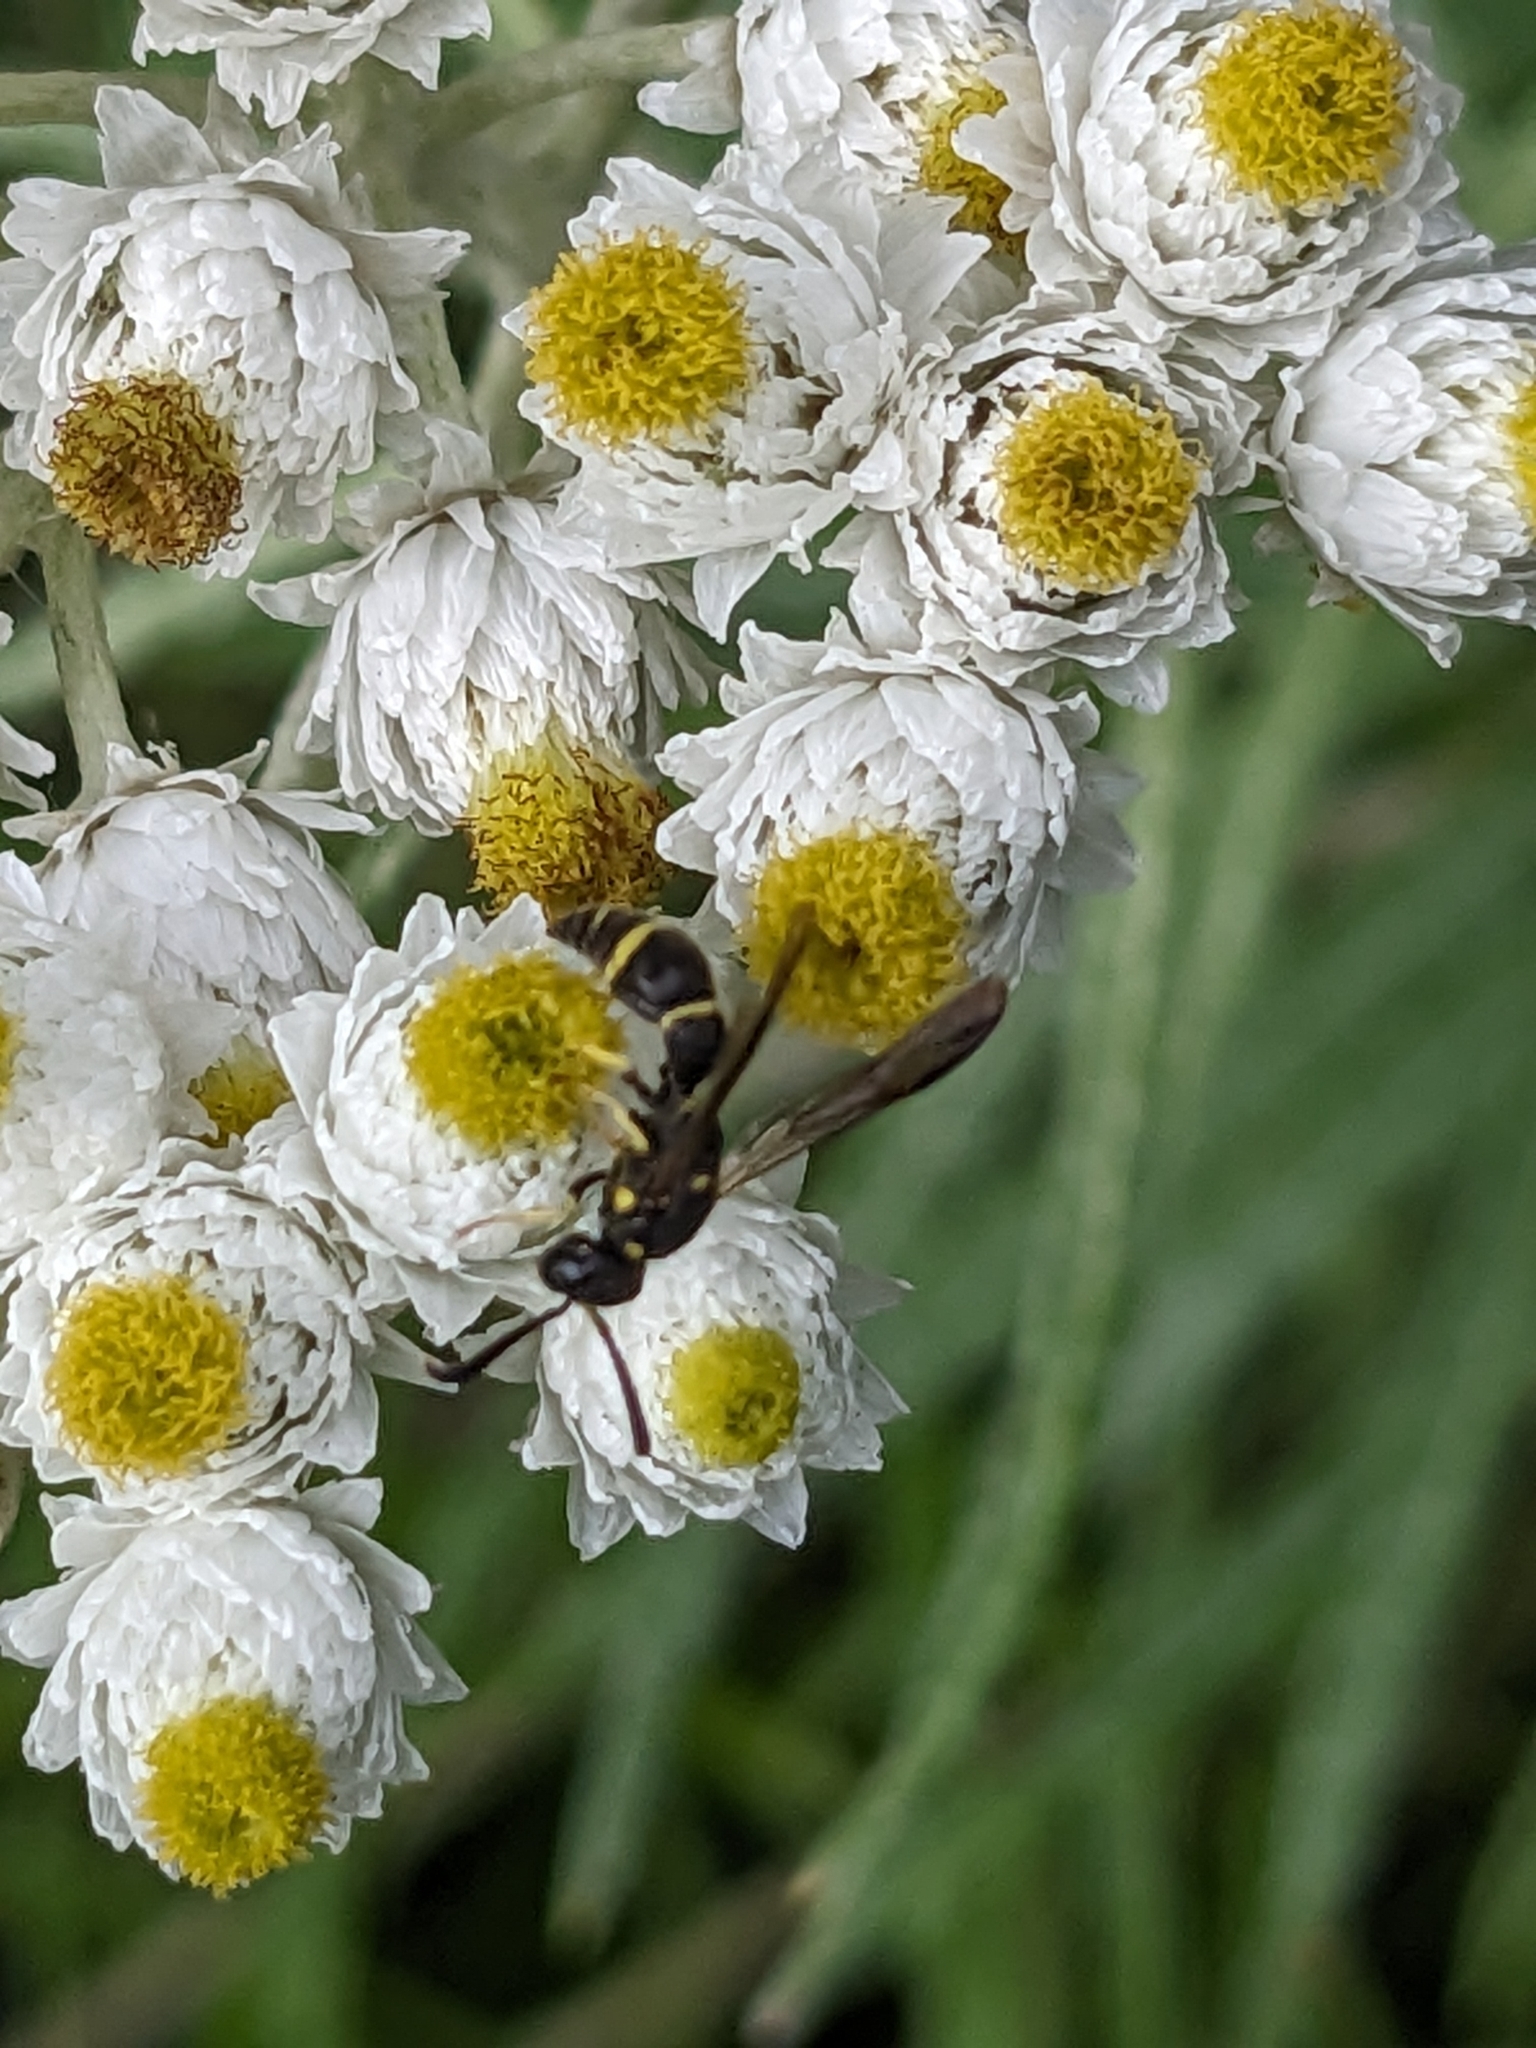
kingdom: Animalia
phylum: Arthropoda
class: Insecta
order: Hymenoptera
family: Eumenidae
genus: Symmorphus
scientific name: Symmorphus canadensis
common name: Canadian potter wasp
